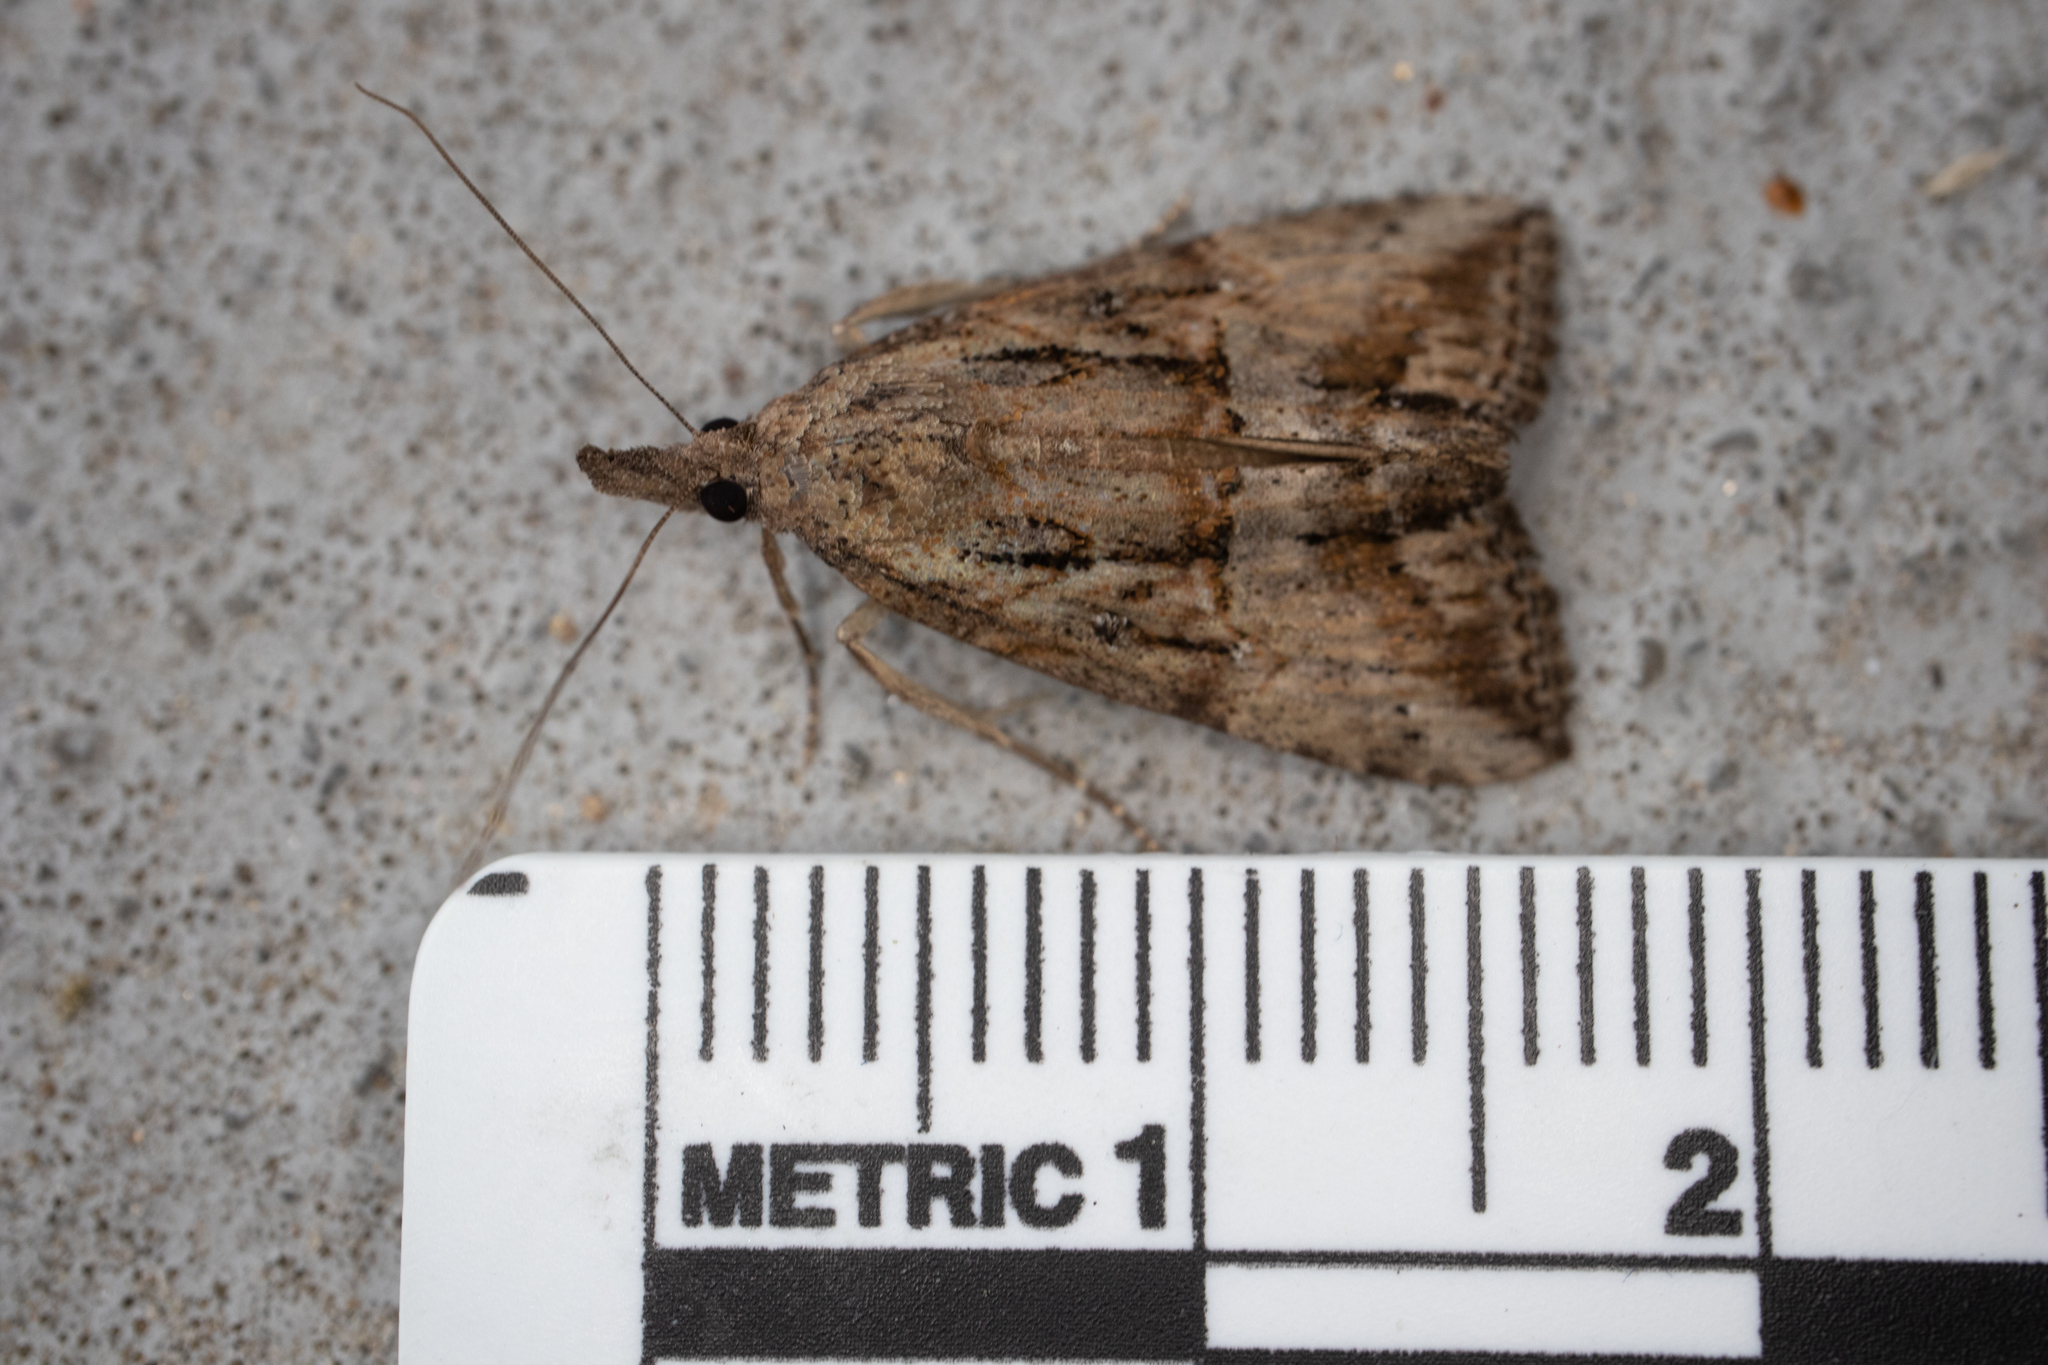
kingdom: Animalia
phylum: Arthropoda
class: Insecta
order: Lepidoptera
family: Erebidae
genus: Hypena
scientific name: Hypena scabra
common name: Green cloverworm
